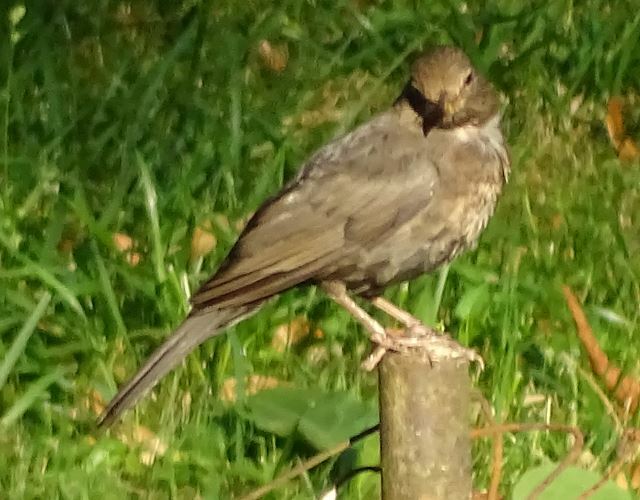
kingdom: Animalia
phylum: Chordata
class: Aves
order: Passeriformes
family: Turdidae
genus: Turdus
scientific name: Turdus merula
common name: Common blackbird
